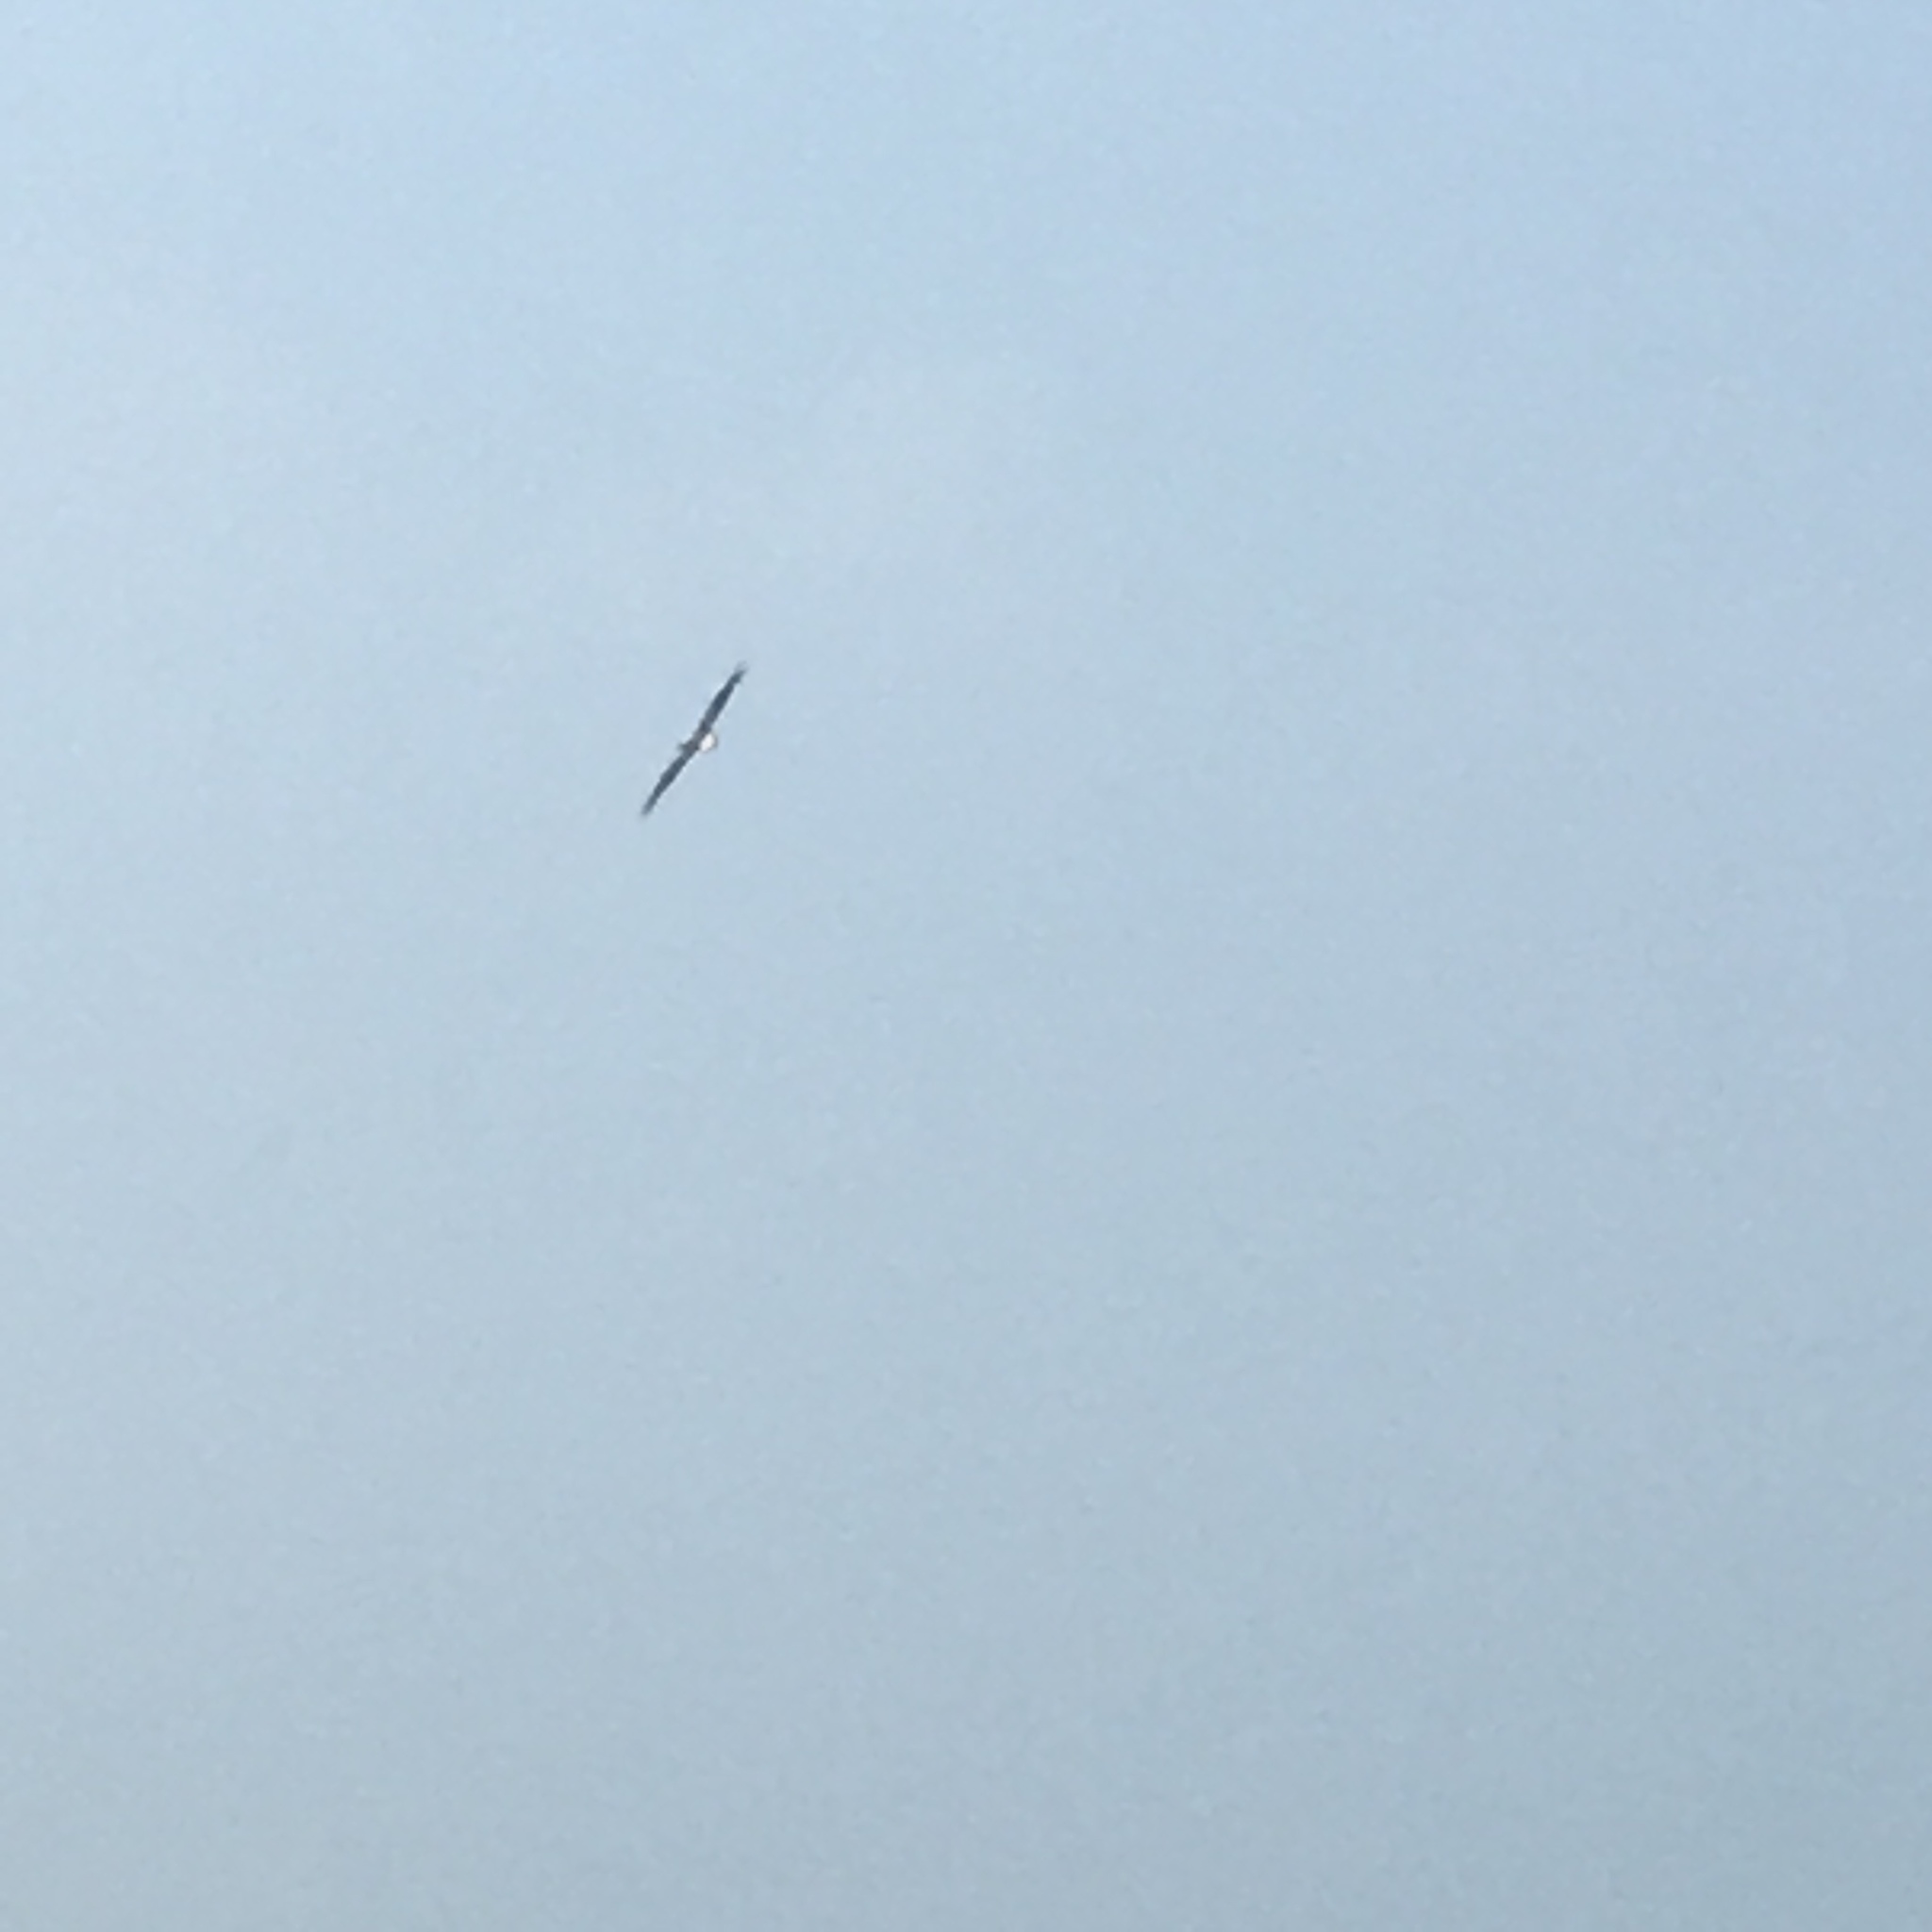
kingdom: Animalia
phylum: Chordata
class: Aves
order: Accipitriformes
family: Accipitridae
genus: Haliaeetus
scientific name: Haliaeetus leucogaster
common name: White-bellied sea eagle
